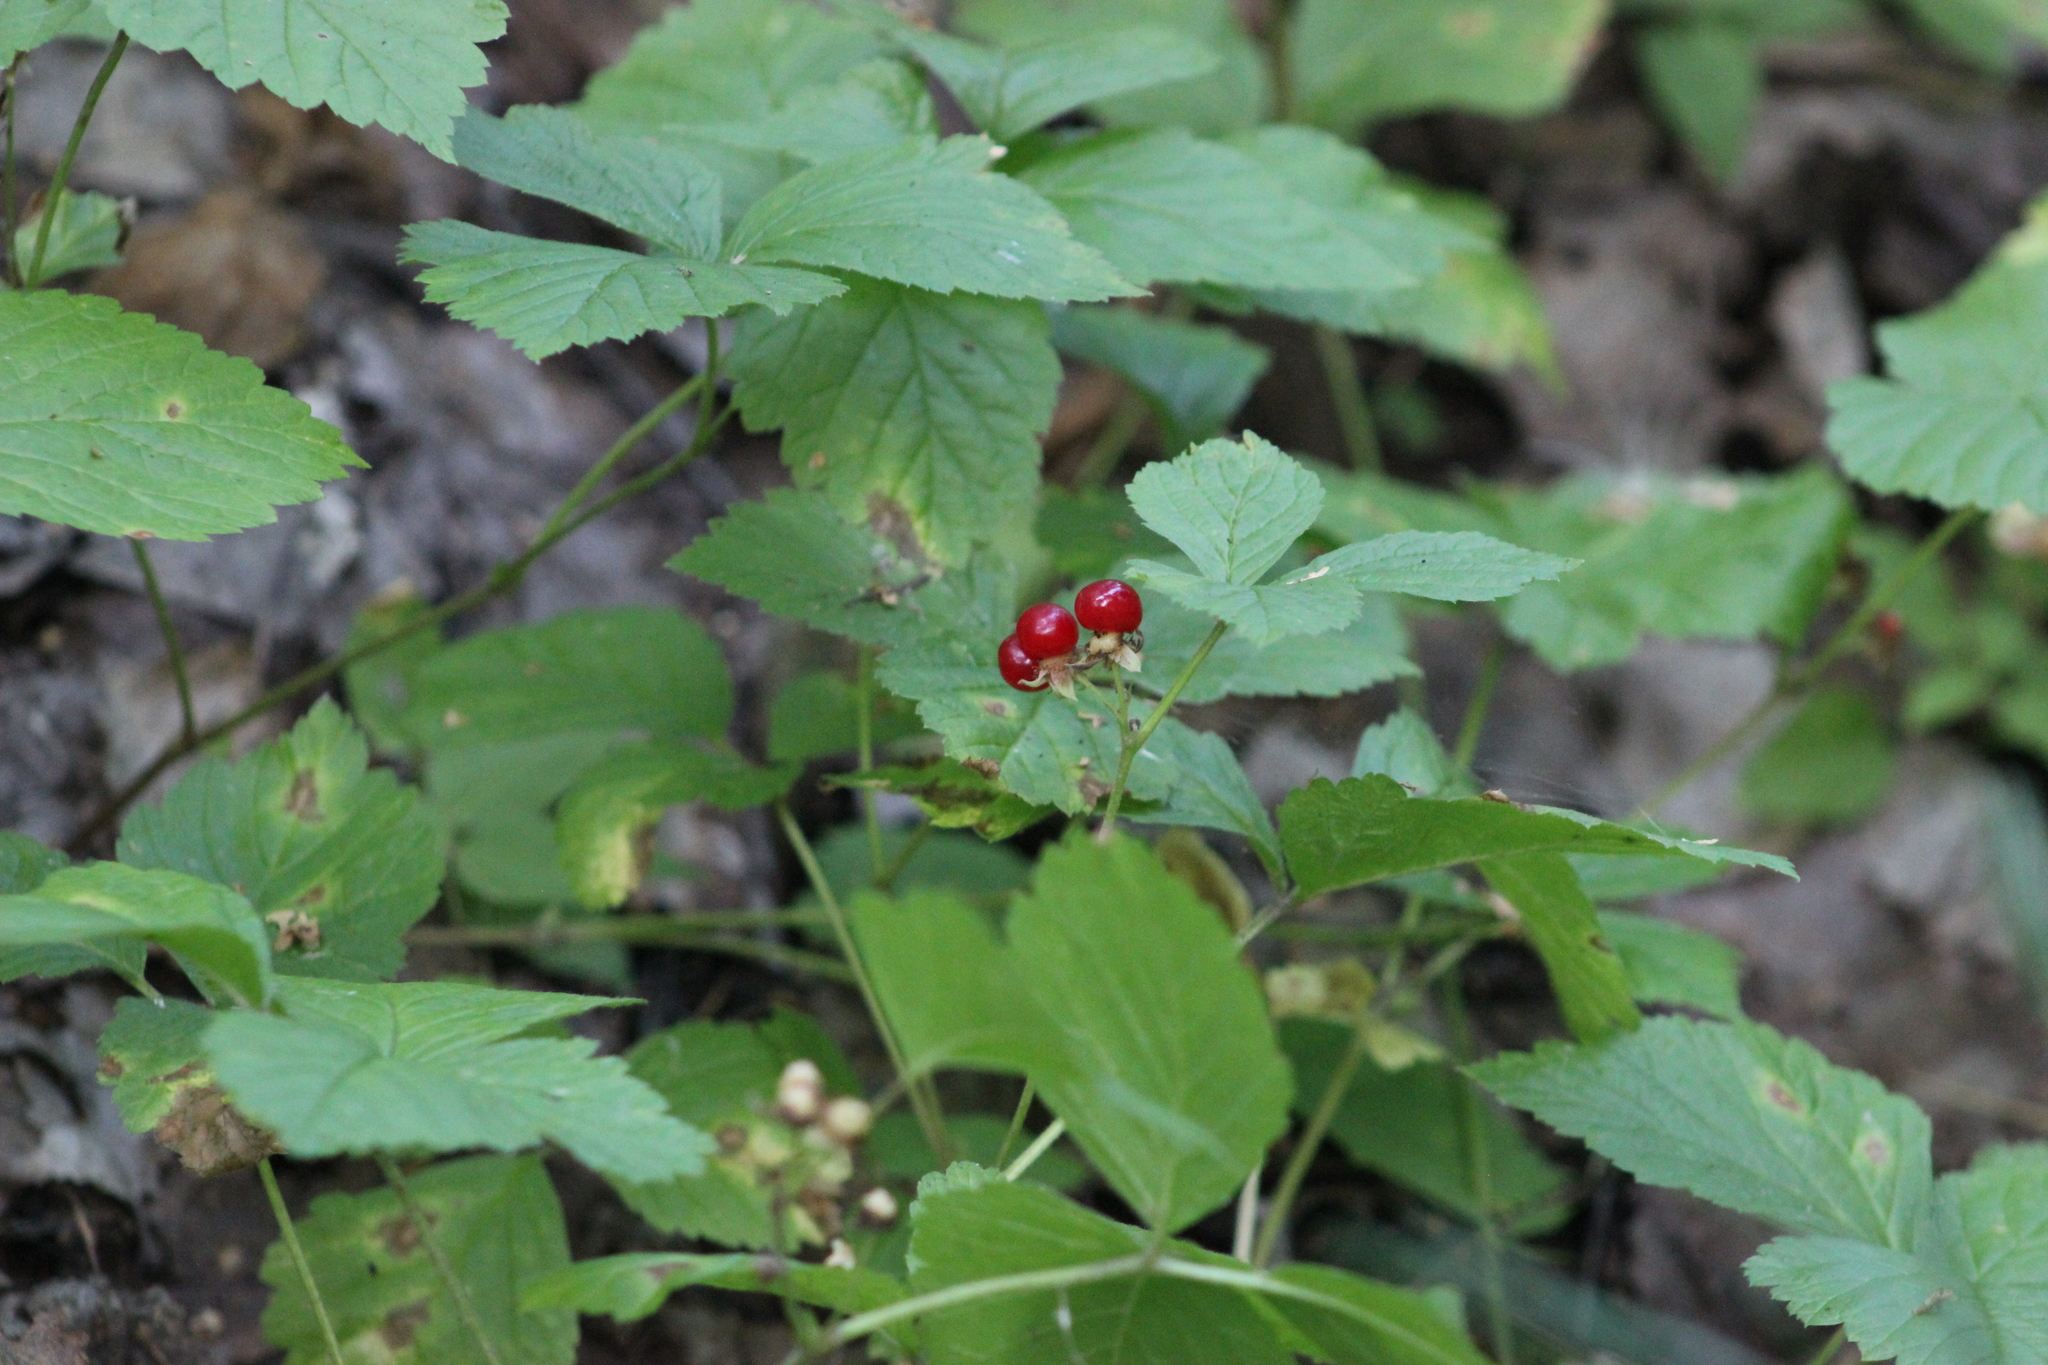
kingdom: Plantae
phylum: Tracheophyta
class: Magnoliopsida
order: Rosales
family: Rosaceae
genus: Rubus
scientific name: Rubus saxatilis
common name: Stone bramble
